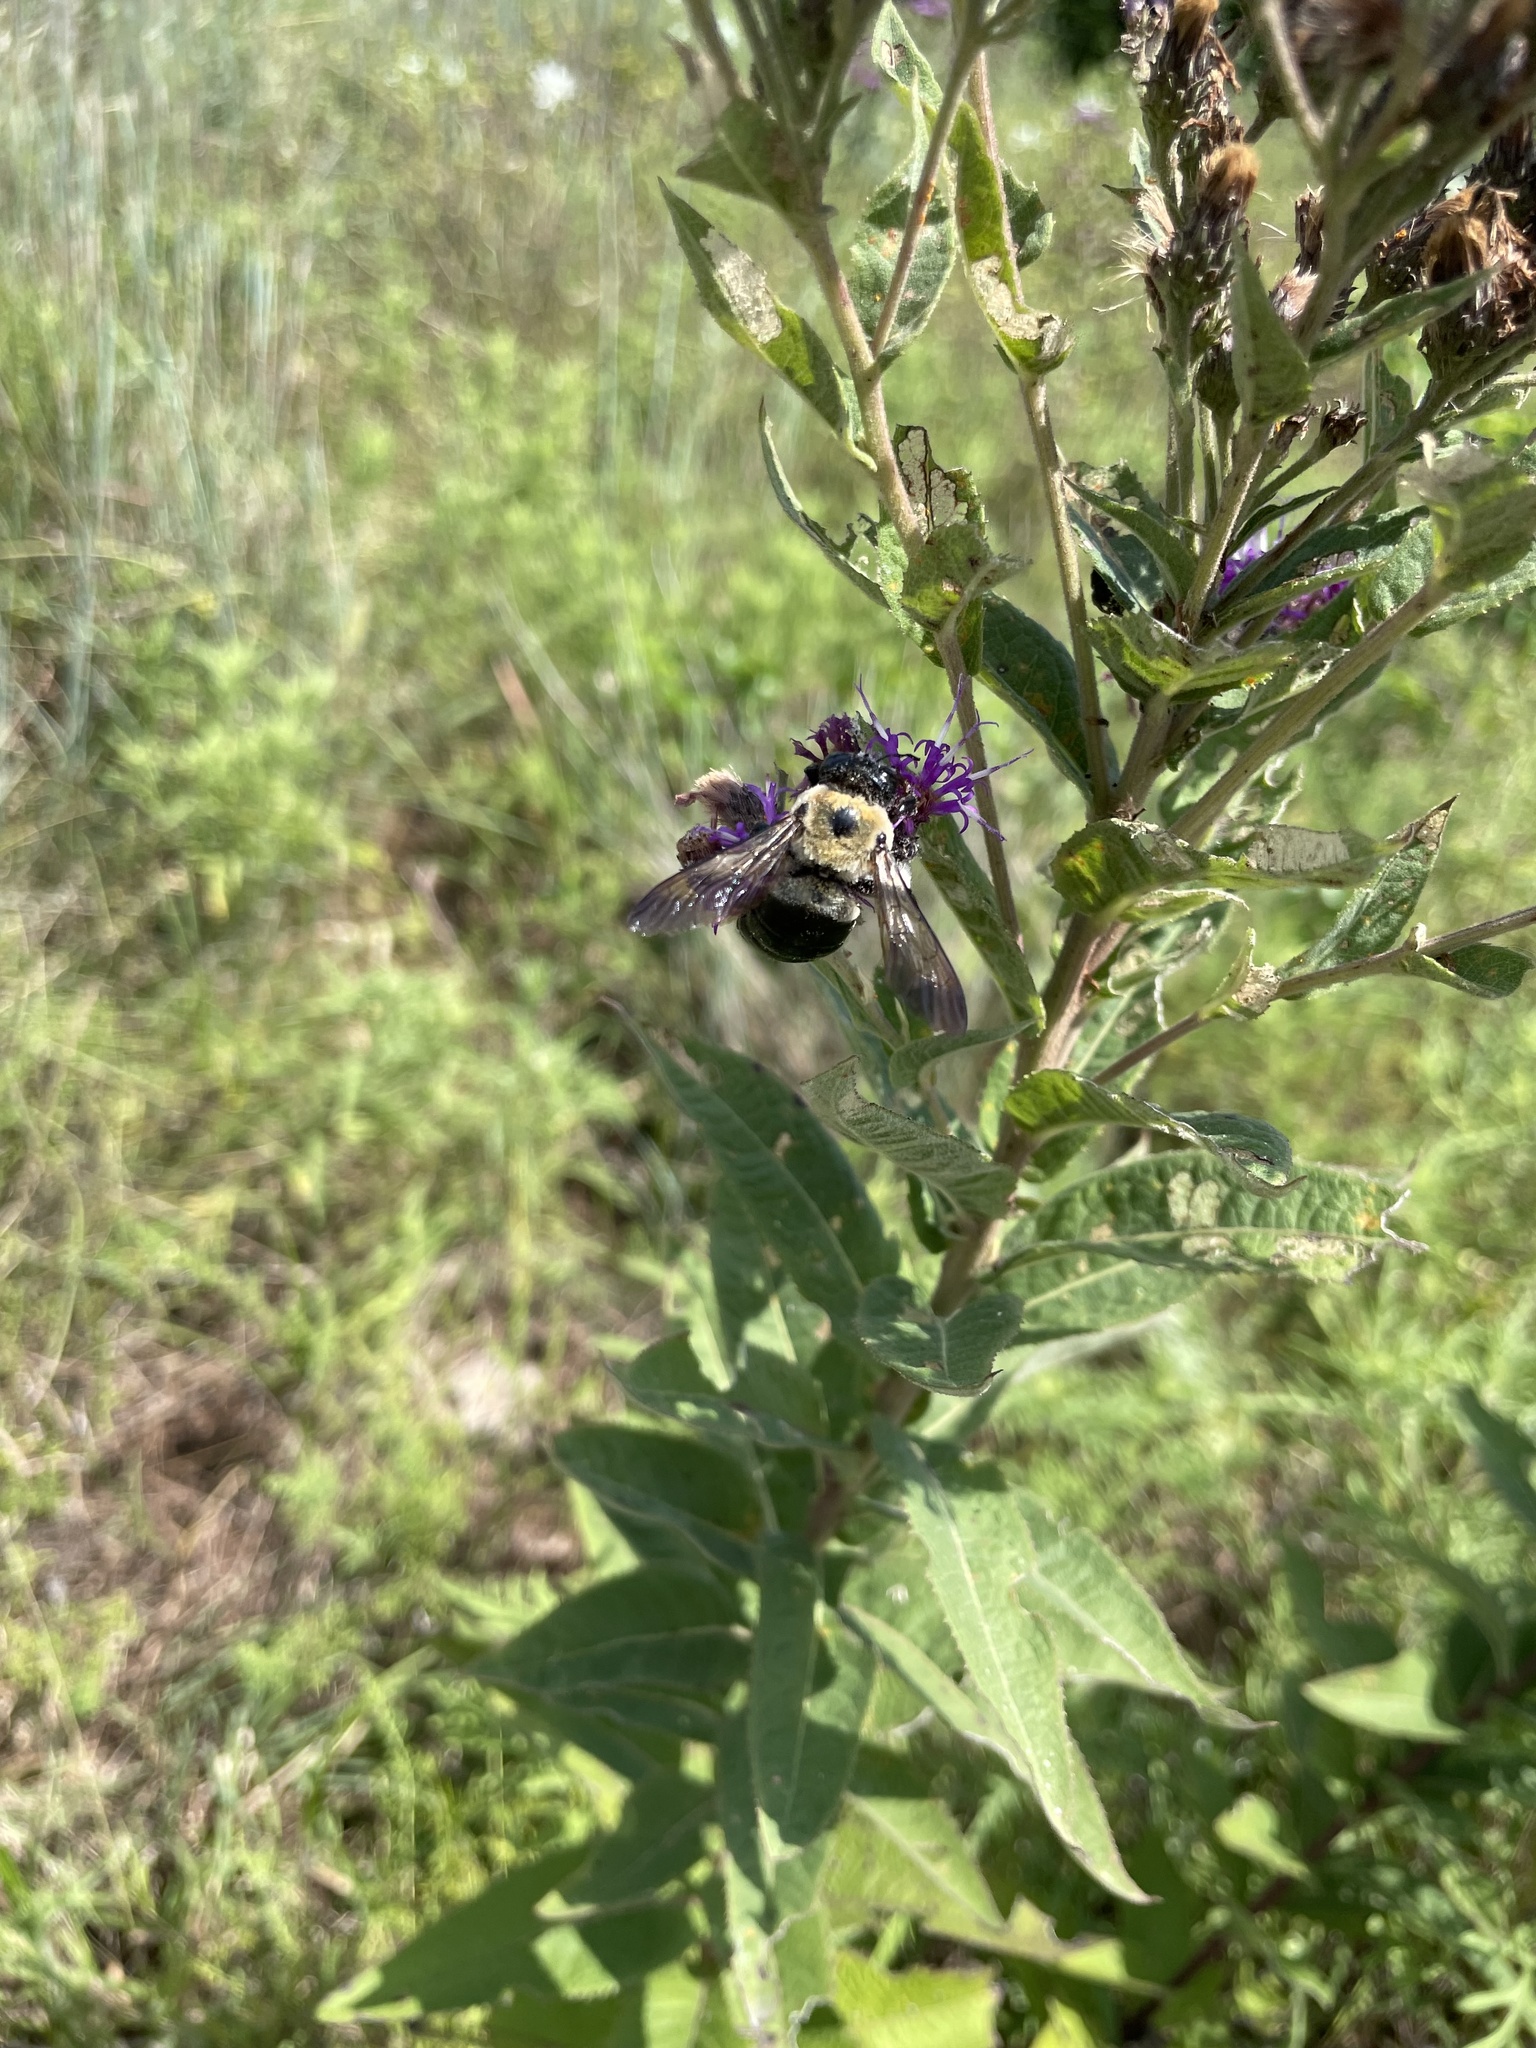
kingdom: Animalia
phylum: Arthropoda
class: Insecta
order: Hymenoptera
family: Apidae
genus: Xylocopa
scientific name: Xylocopa virginica
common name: Carpenter bee
